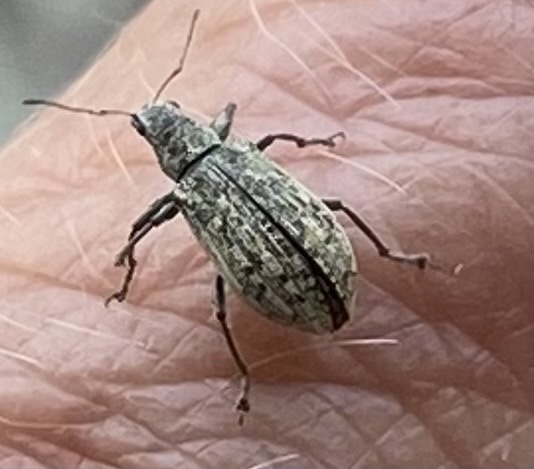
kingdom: Animalia
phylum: Arthropoda
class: Insecta
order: Coleoptera
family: Curculionidae
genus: Polydrusus
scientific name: Polydrusus cervinus
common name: Weevil
